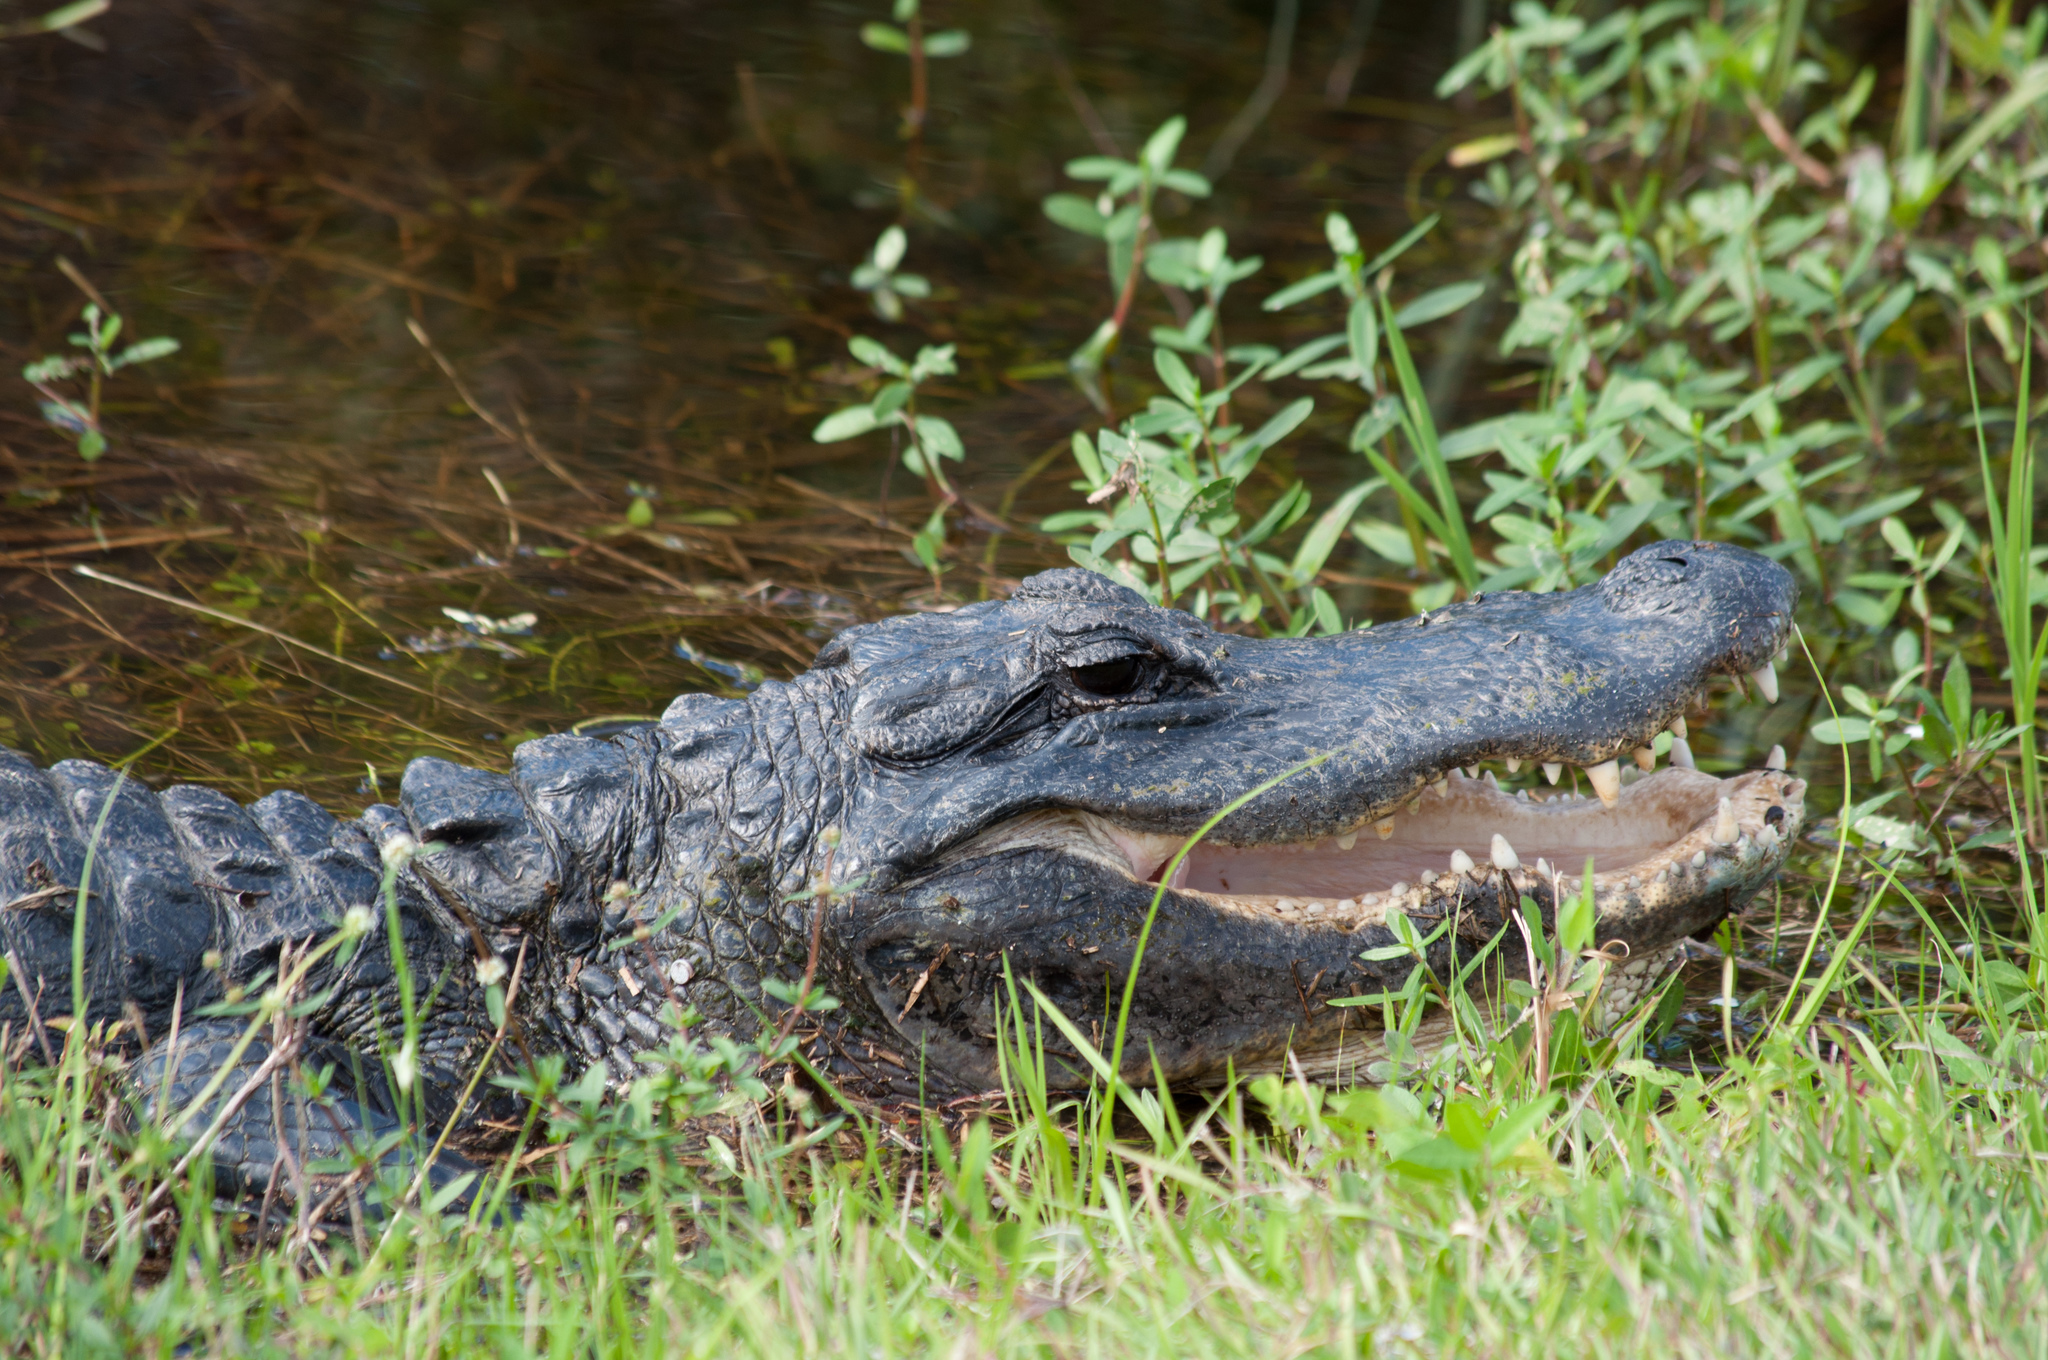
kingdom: Animalia
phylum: Chordata
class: Crocodylia
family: Alligatoridae
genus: Alligator
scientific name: Alligator mississippiensis
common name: American alligator
